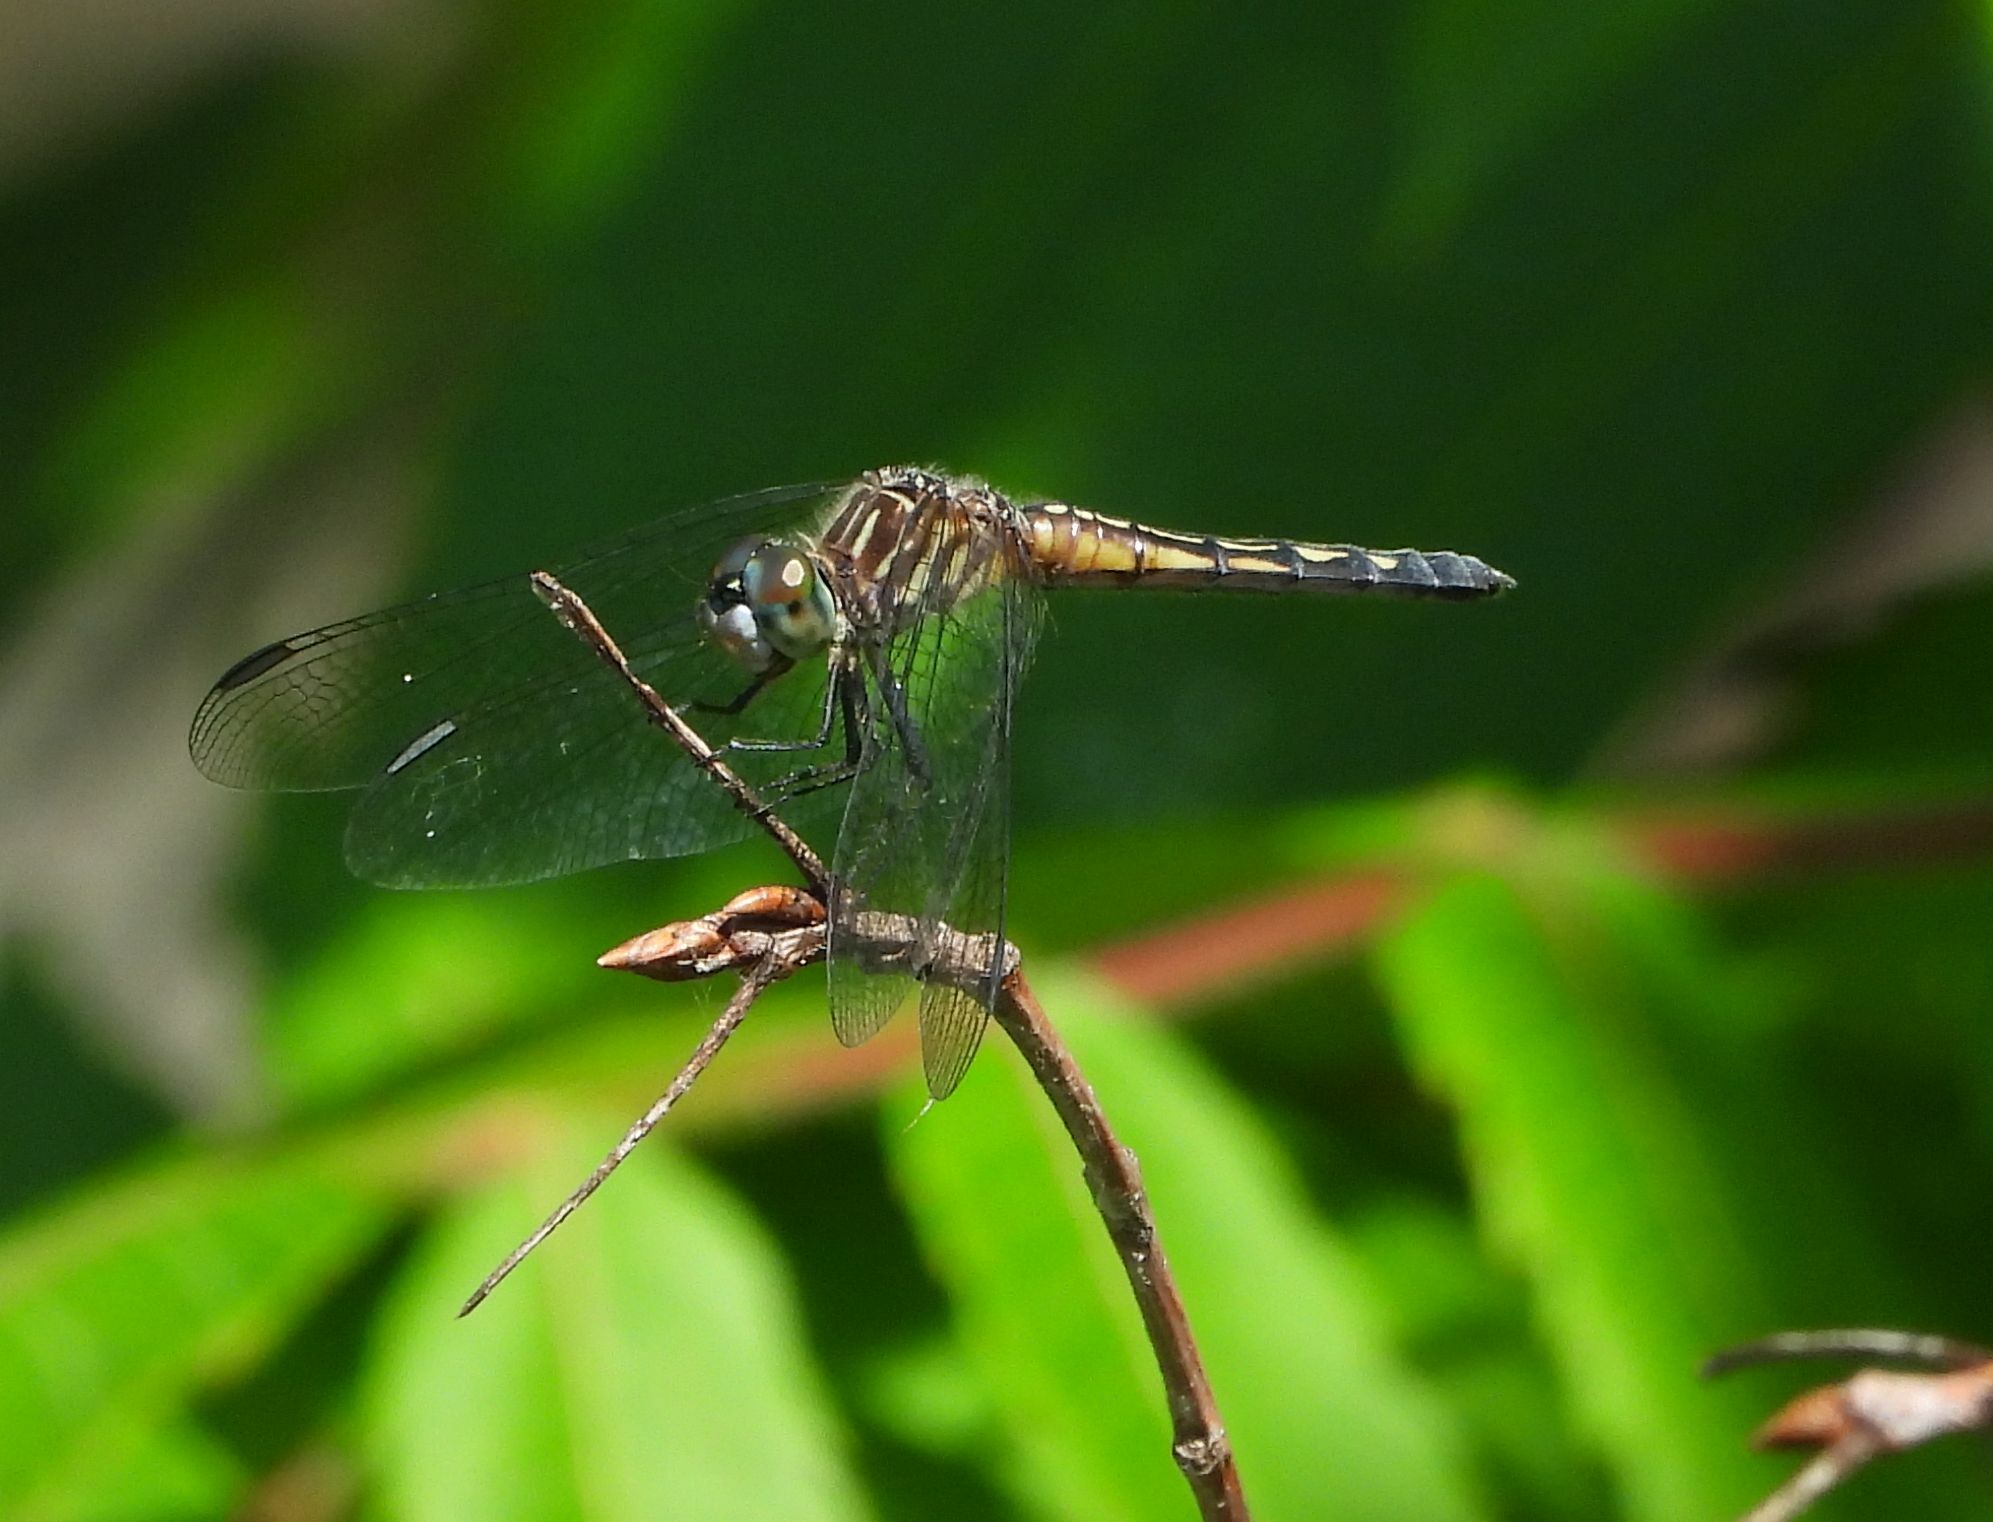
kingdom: Animalia
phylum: Arthropoda
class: Insecta
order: Odonata
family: Libellulidae
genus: Pachydiplax
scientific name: Pachydiplax longipennis
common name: Blue dasher
